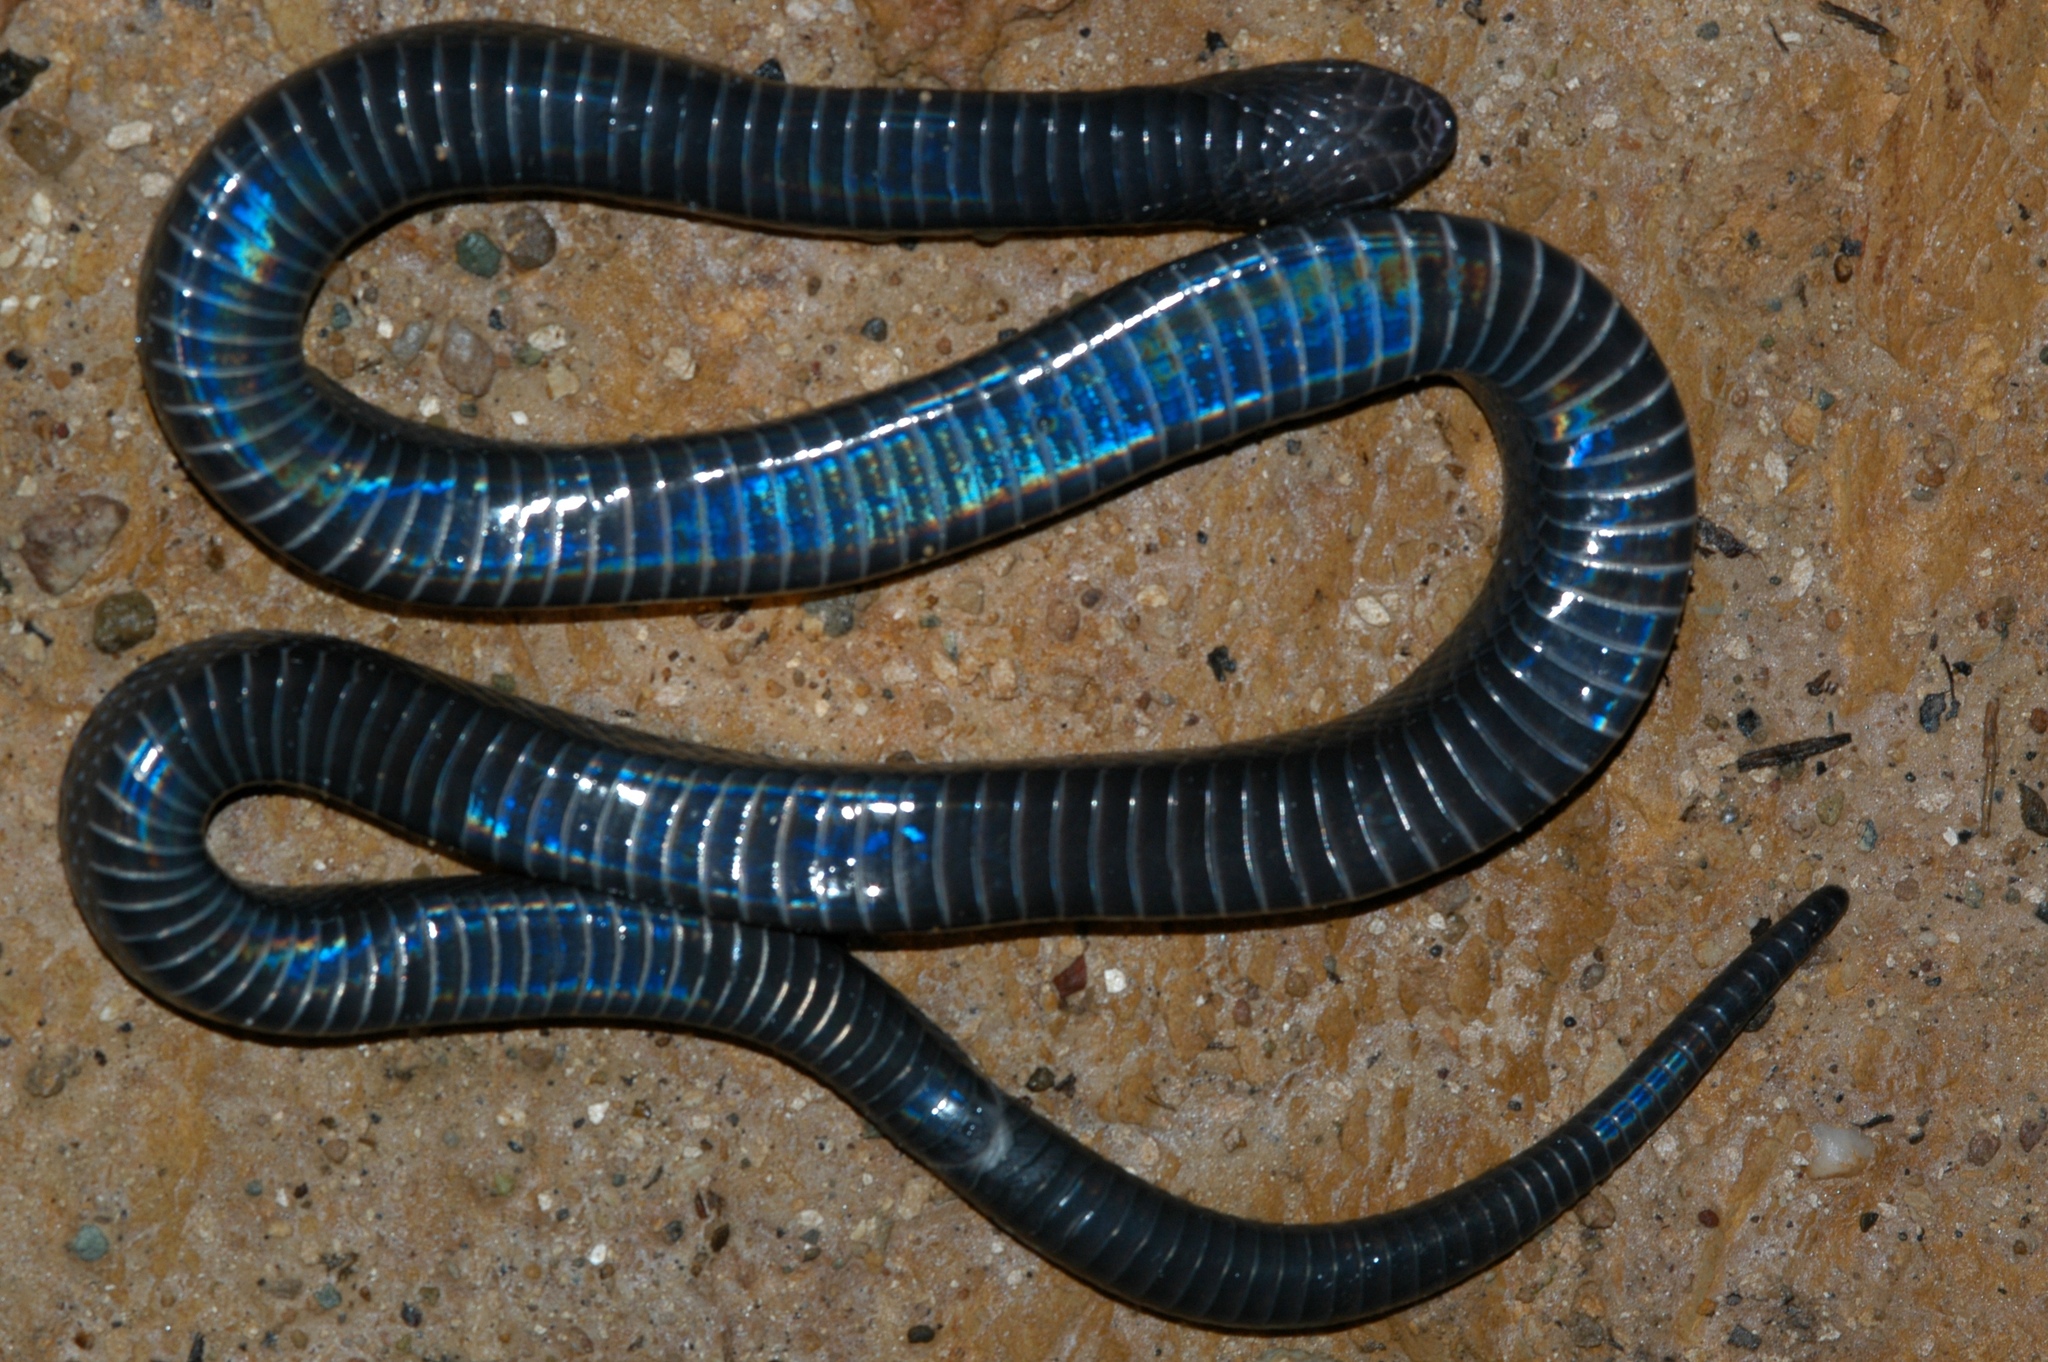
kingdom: Animalia
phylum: Chordata
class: Squamata
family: Atractaspididae
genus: Macrelaps
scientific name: Macrelaps microlepidotus
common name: Kwazulu-natal black snake
